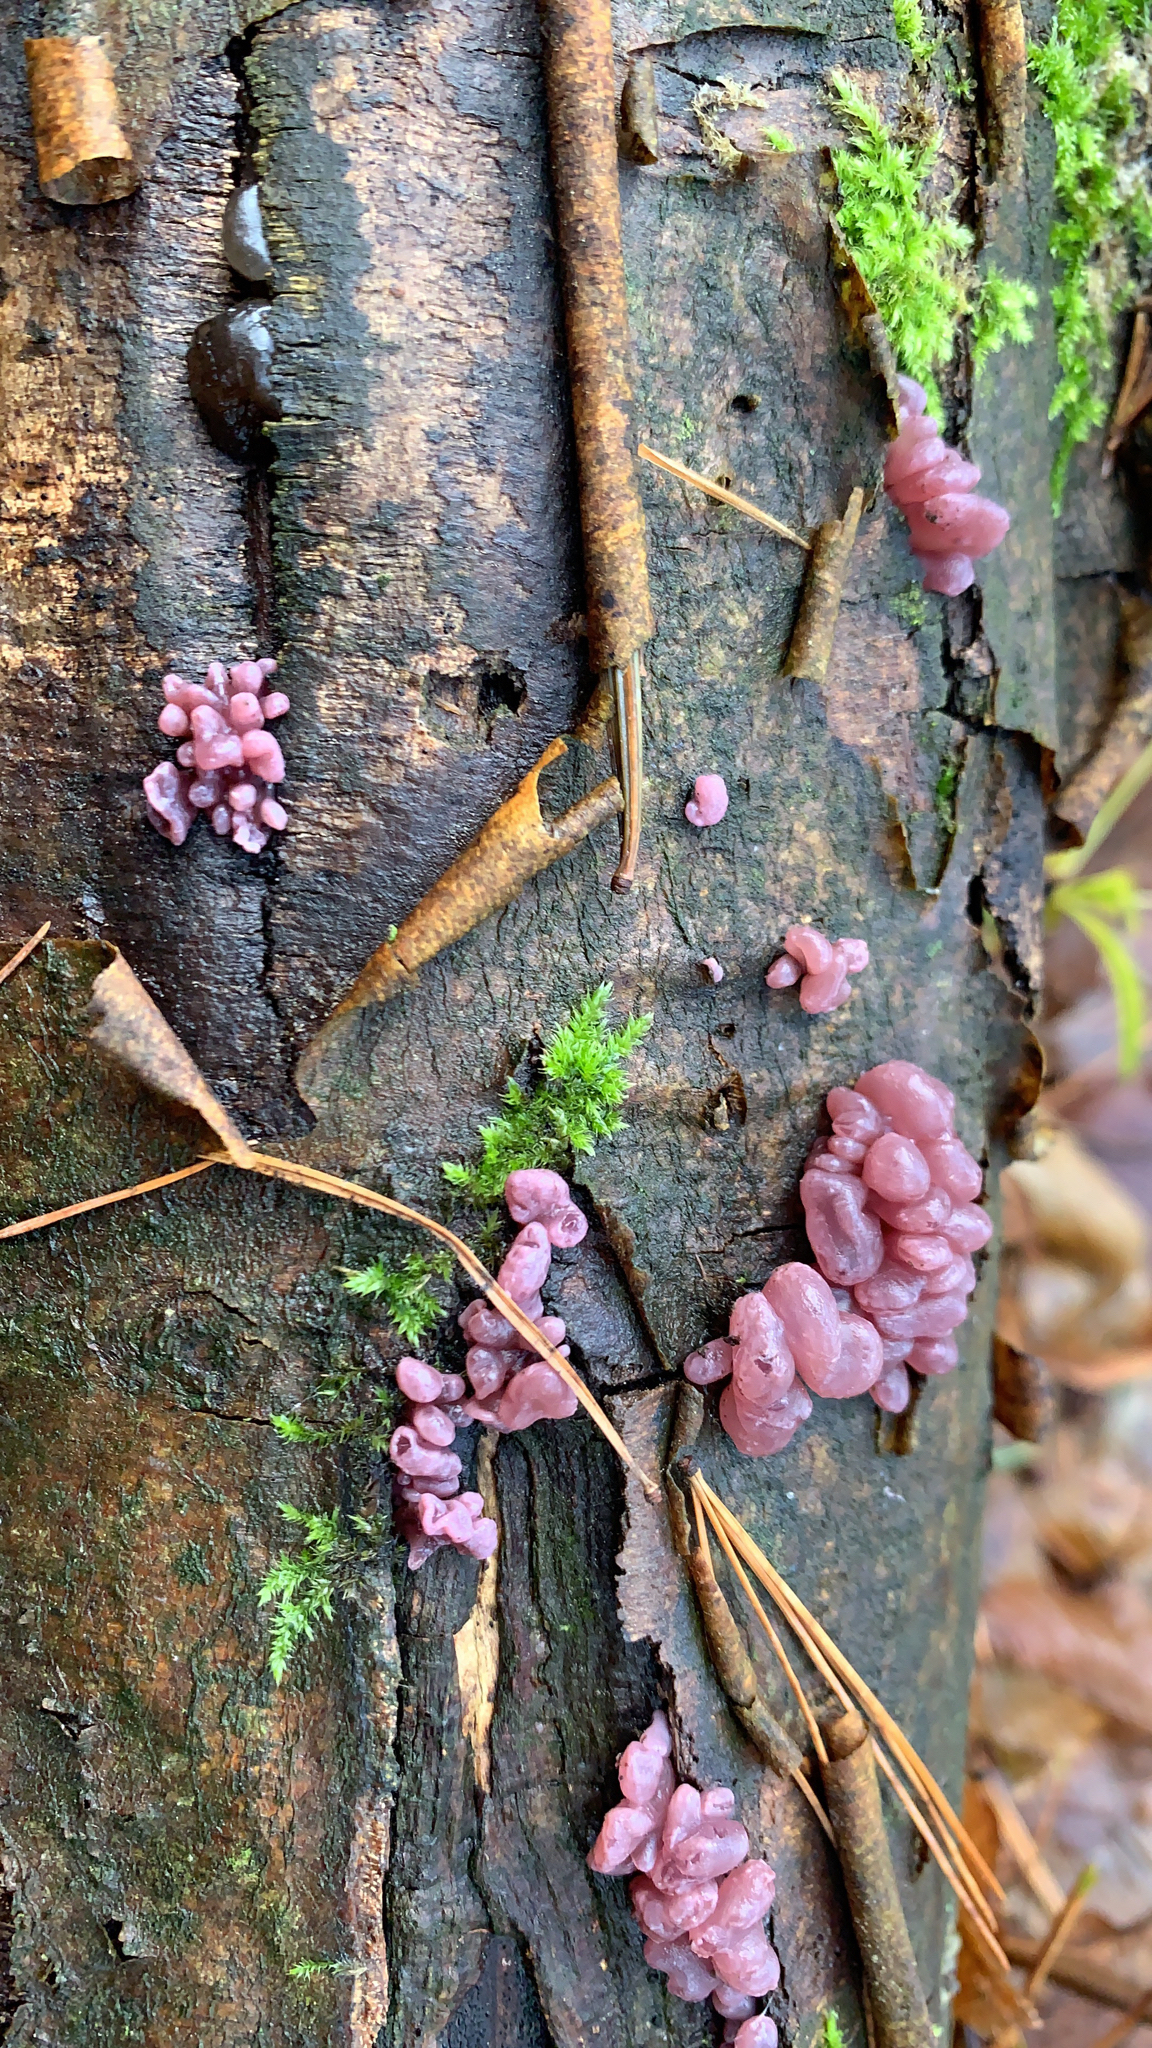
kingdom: Fungi
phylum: Ascomycota
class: Leotiomycetes
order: Helotiales
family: Gelatinodiscaceae
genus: Ascocoryne
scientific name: Ascocoryne sarcoides
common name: Purple jellydisc
